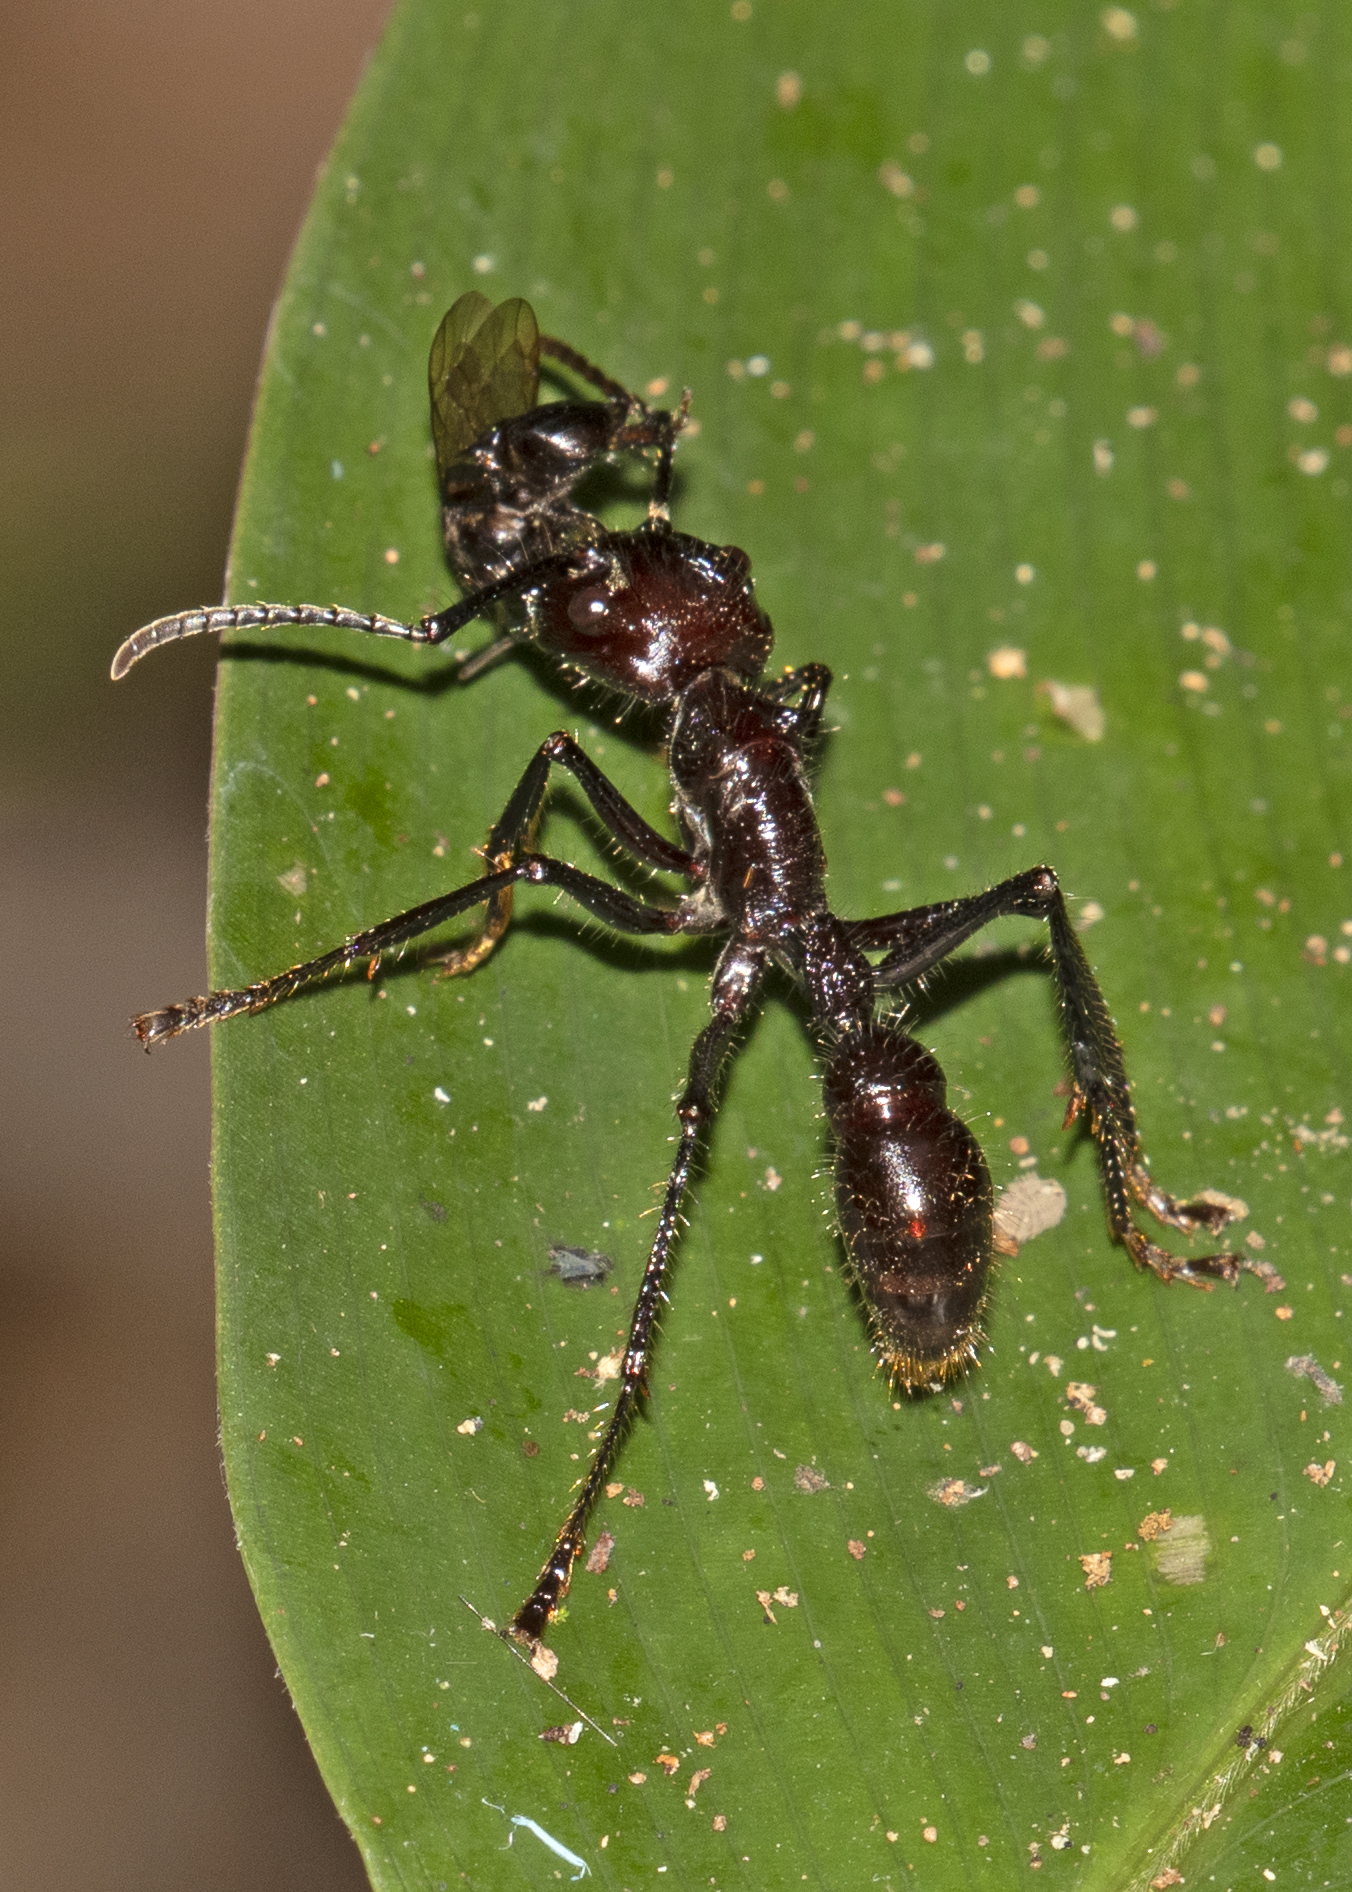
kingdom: Animalia
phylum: Arthropoda
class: Insecta
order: Hymenoptera
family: Formicidae
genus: Paraponera
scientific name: Paraponera clavata
